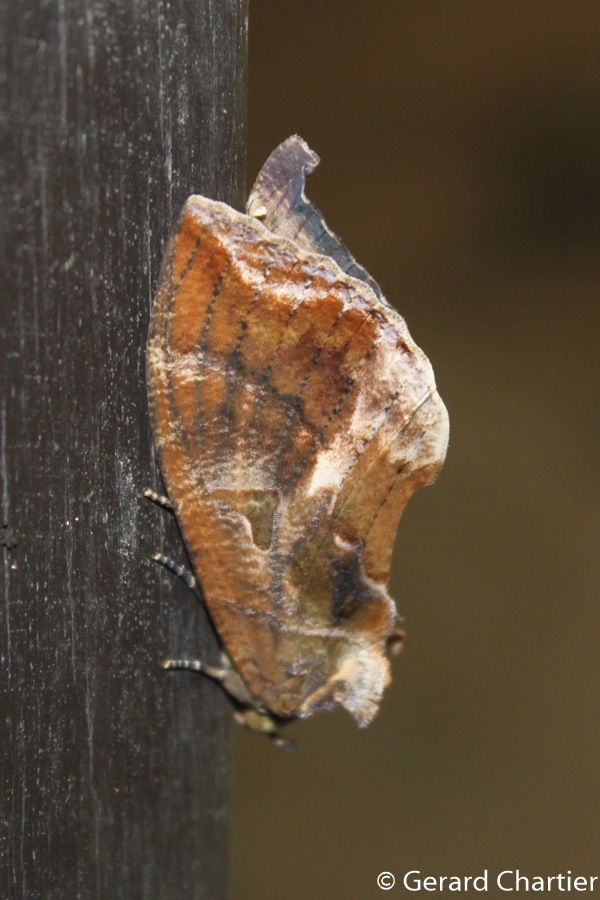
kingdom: Animalia
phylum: Arthropoda
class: Insecta
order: Lepidoptera
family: Erebidae
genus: Eudocima
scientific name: Eudocima phalonia
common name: Wasp
